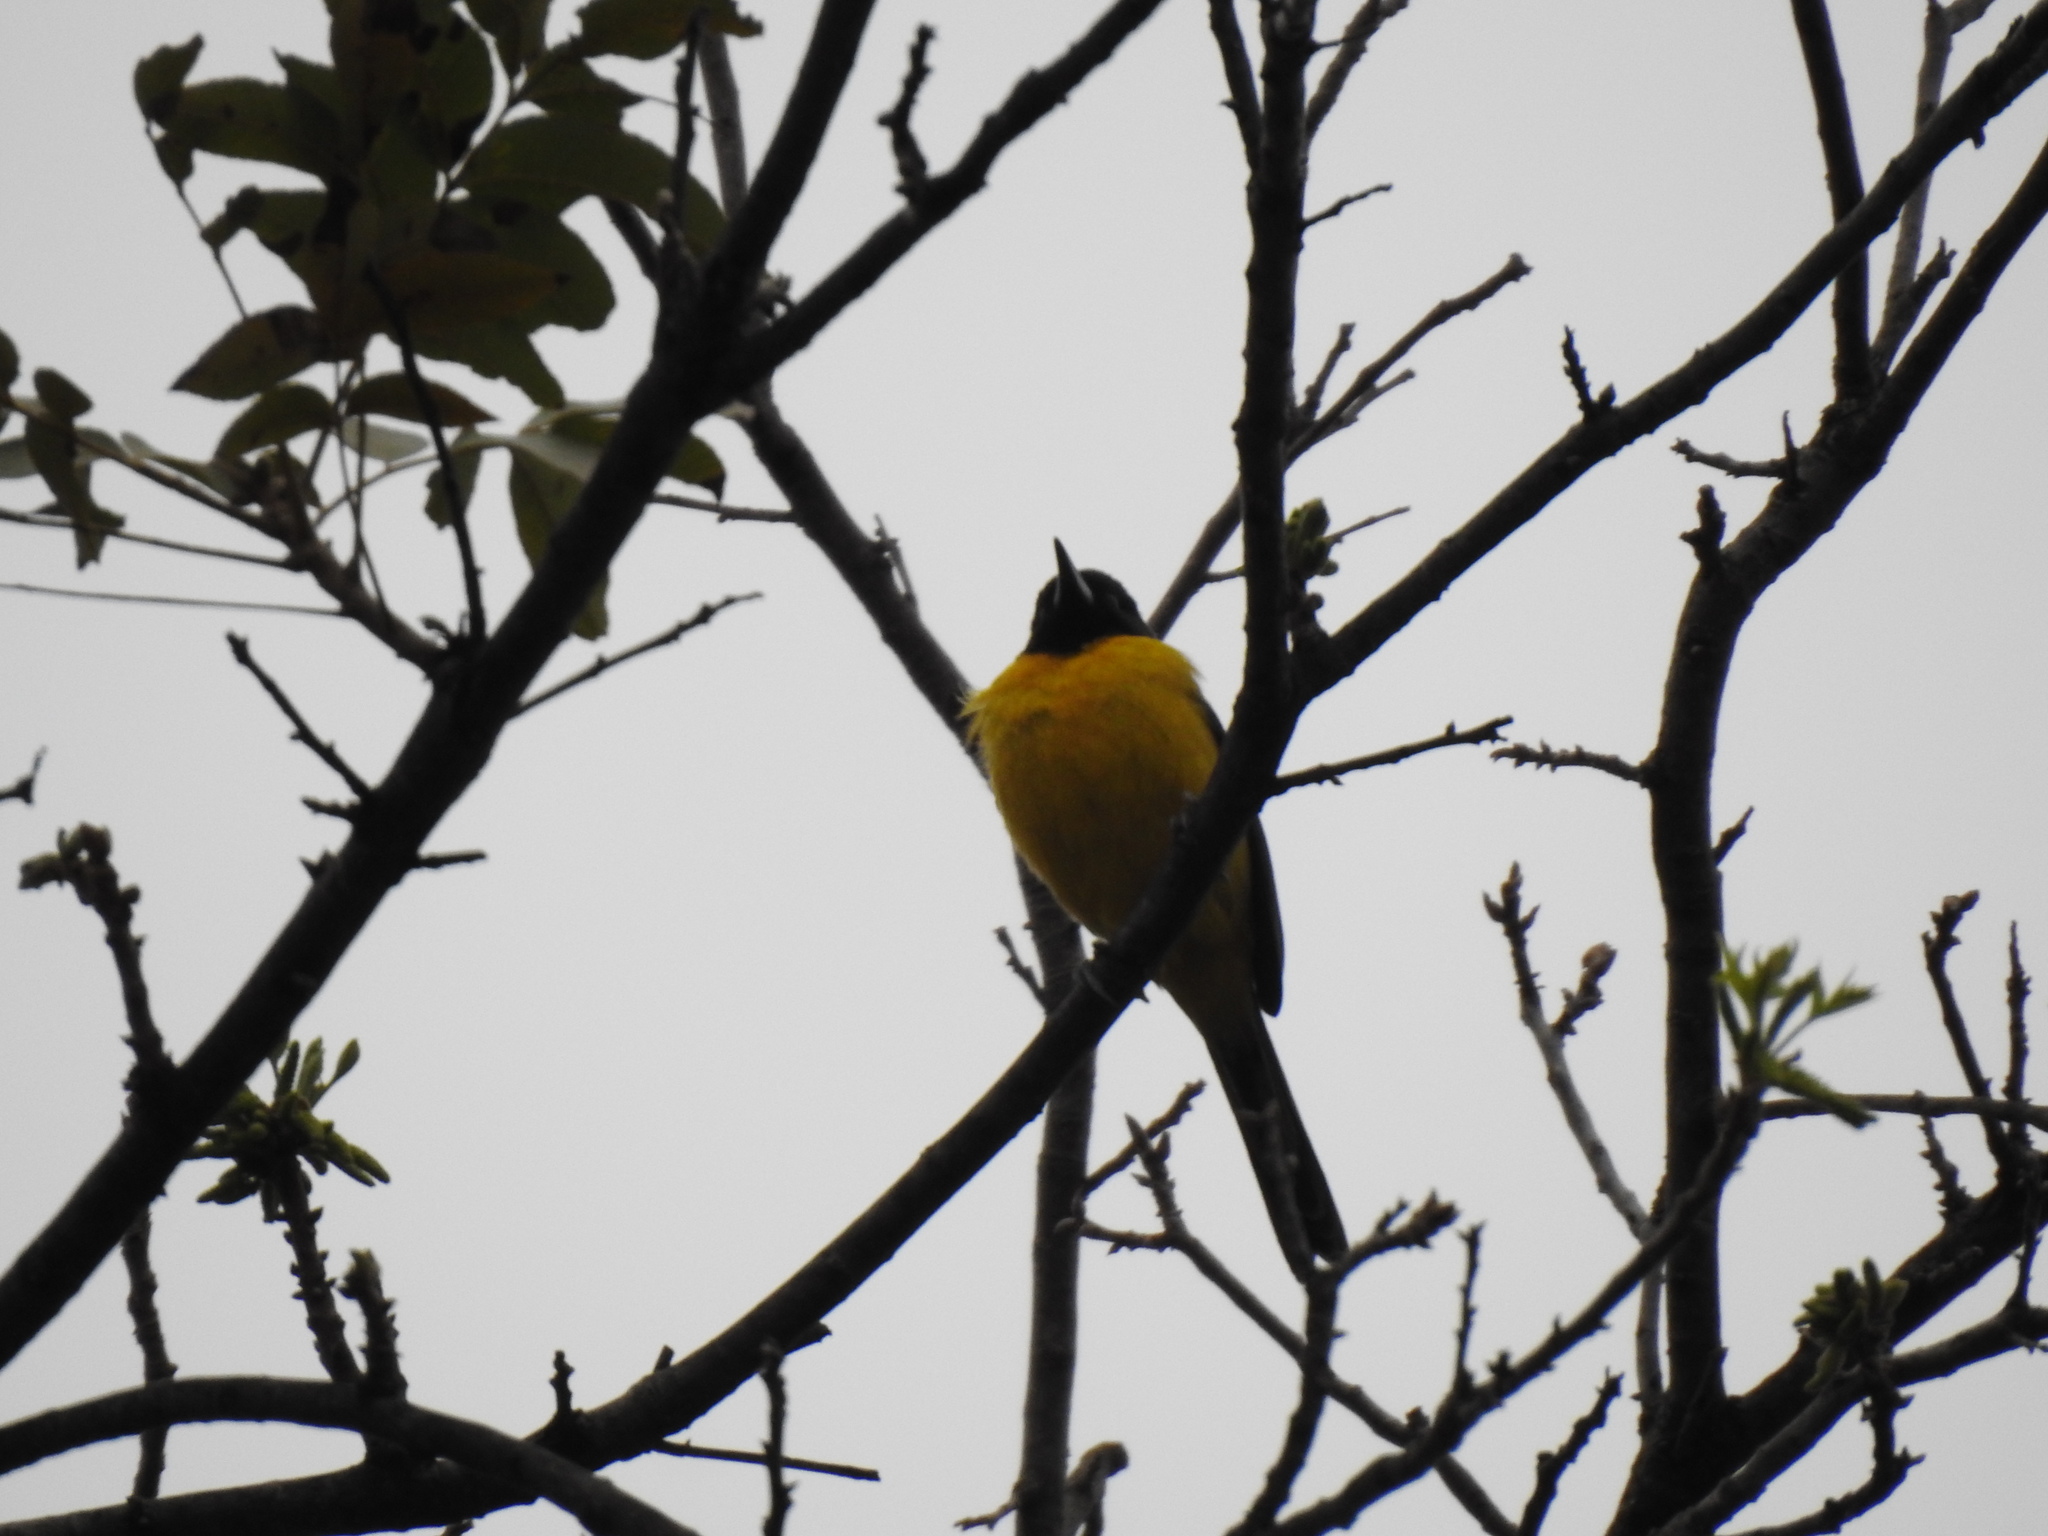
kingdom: Animalia
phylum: Chordata
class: Aves
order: Passeriformes
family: Icteridae
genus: Icterus
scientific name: Icterus graduacauda
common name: Audubon's oriole
